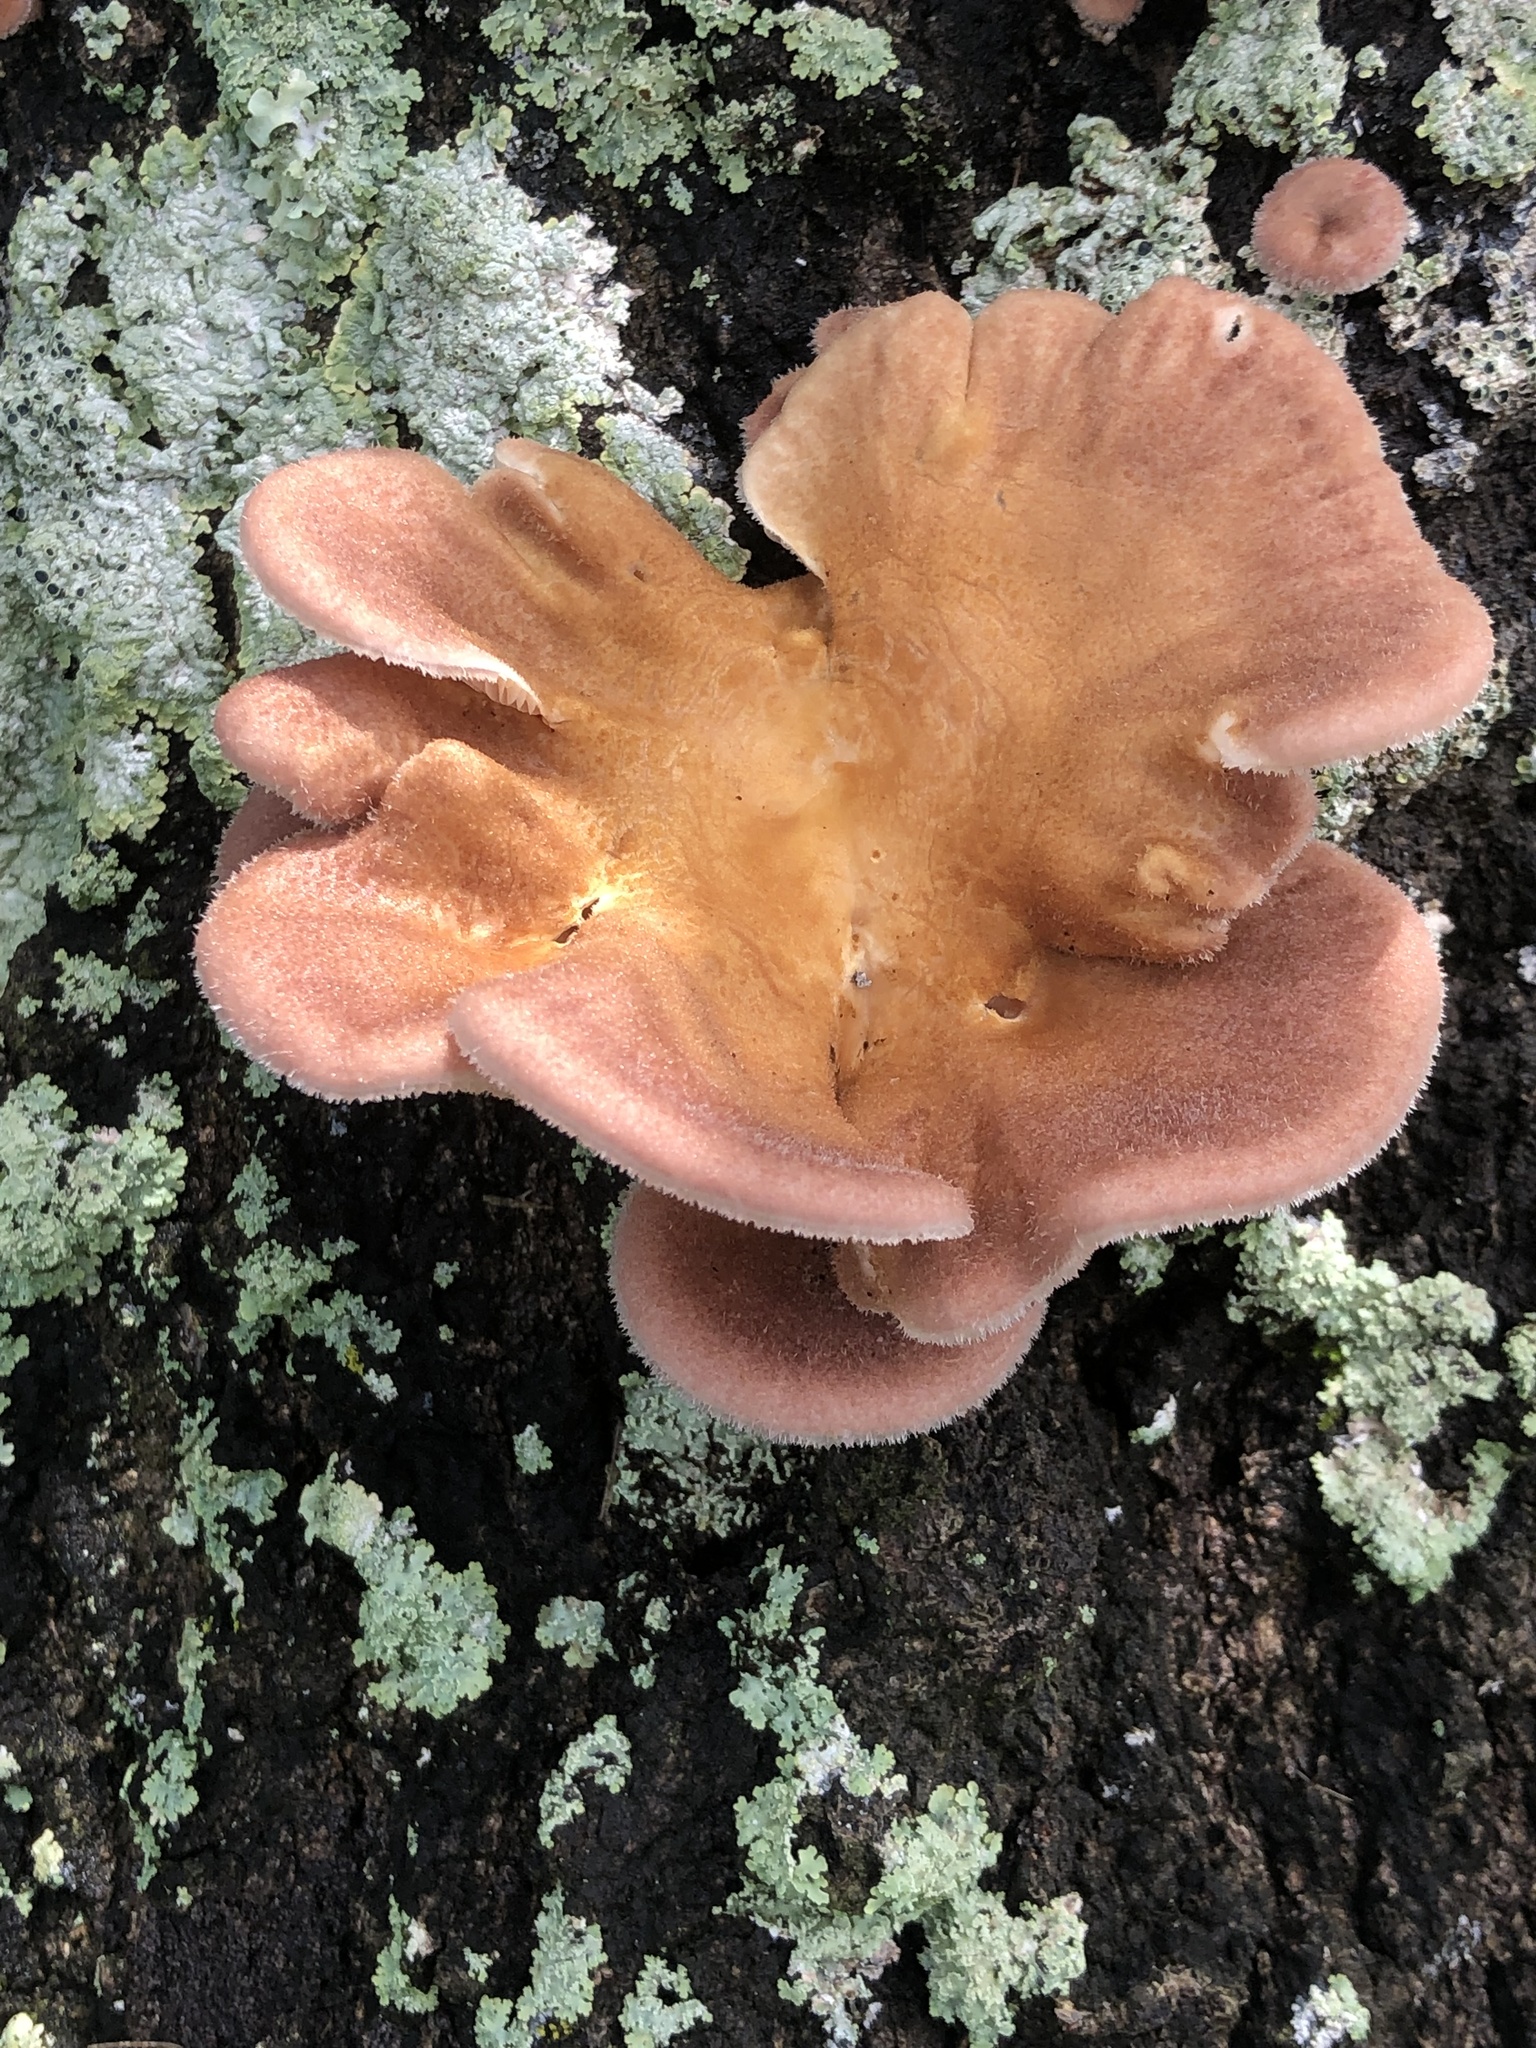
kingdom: Fungi
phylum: Basidiomycota
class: Agaricomycetes
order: Polyporales
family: Panaceae
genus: Panus
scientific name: Panus neostrigosus
